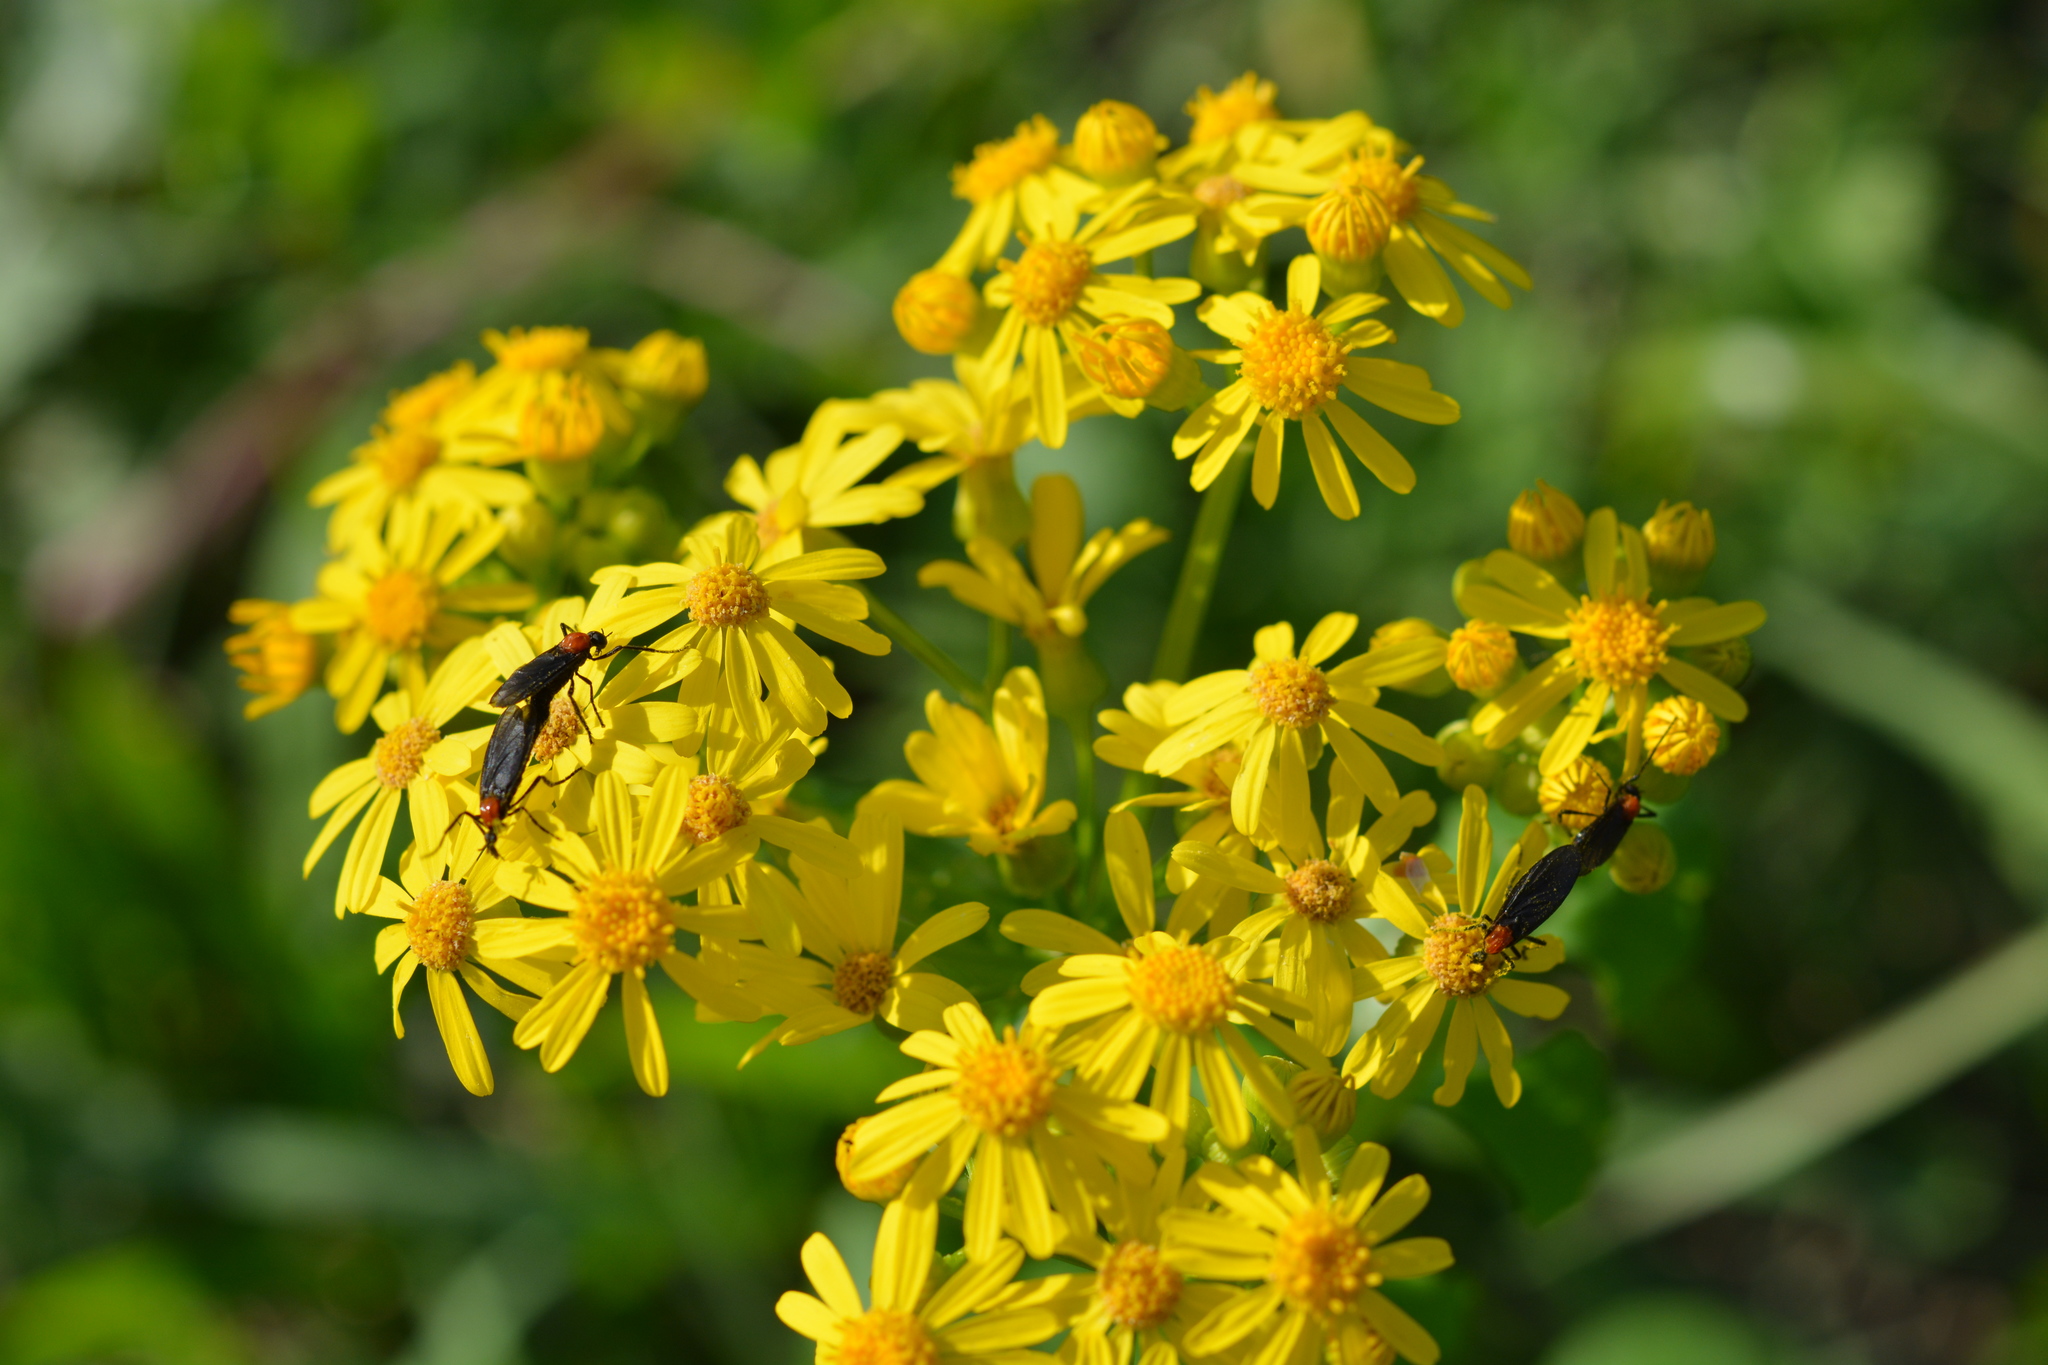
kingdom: Animalia
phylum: Arthropoda
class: Insecta
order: Diptera
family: Bibionidae
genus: Plecia
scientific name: Plecia nearctica
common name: March fly
